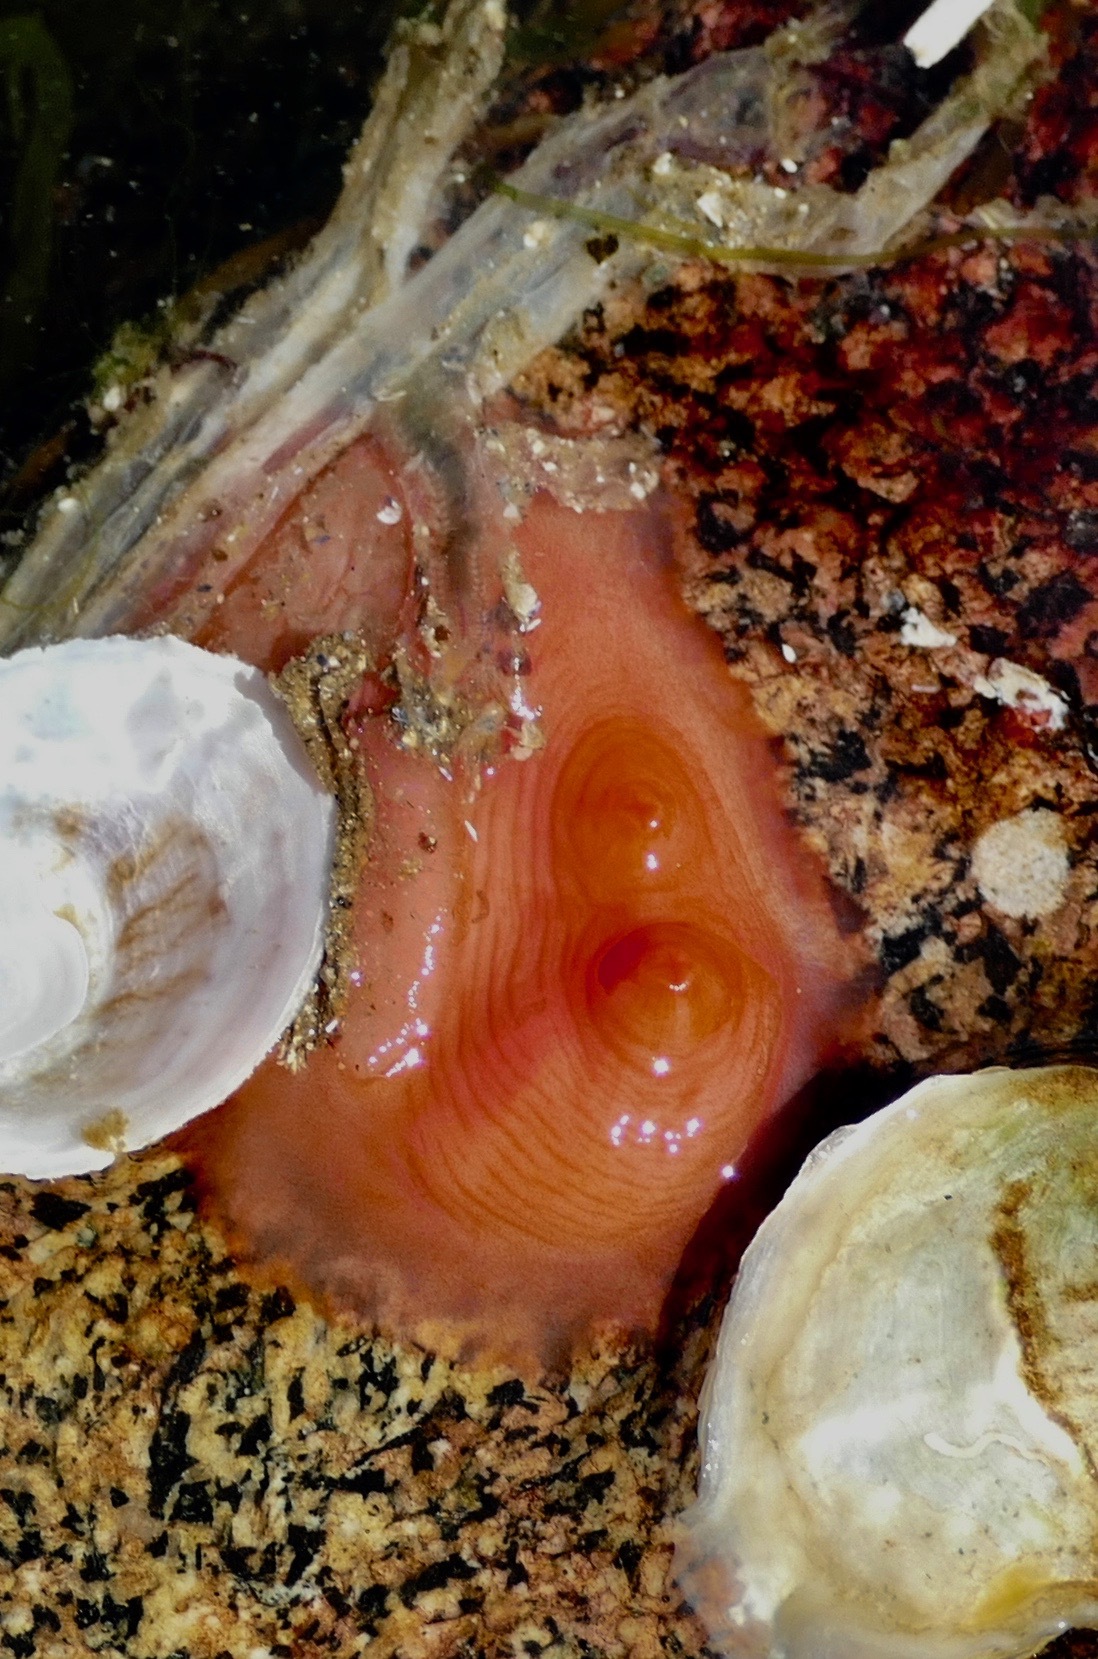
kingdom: Animalia
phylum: Chordata
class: Ascidiacea
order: Stolidobranchia
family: Styelidae
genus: Cnemidocarpa
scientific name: Cnemidocarpa finmarkiensis
